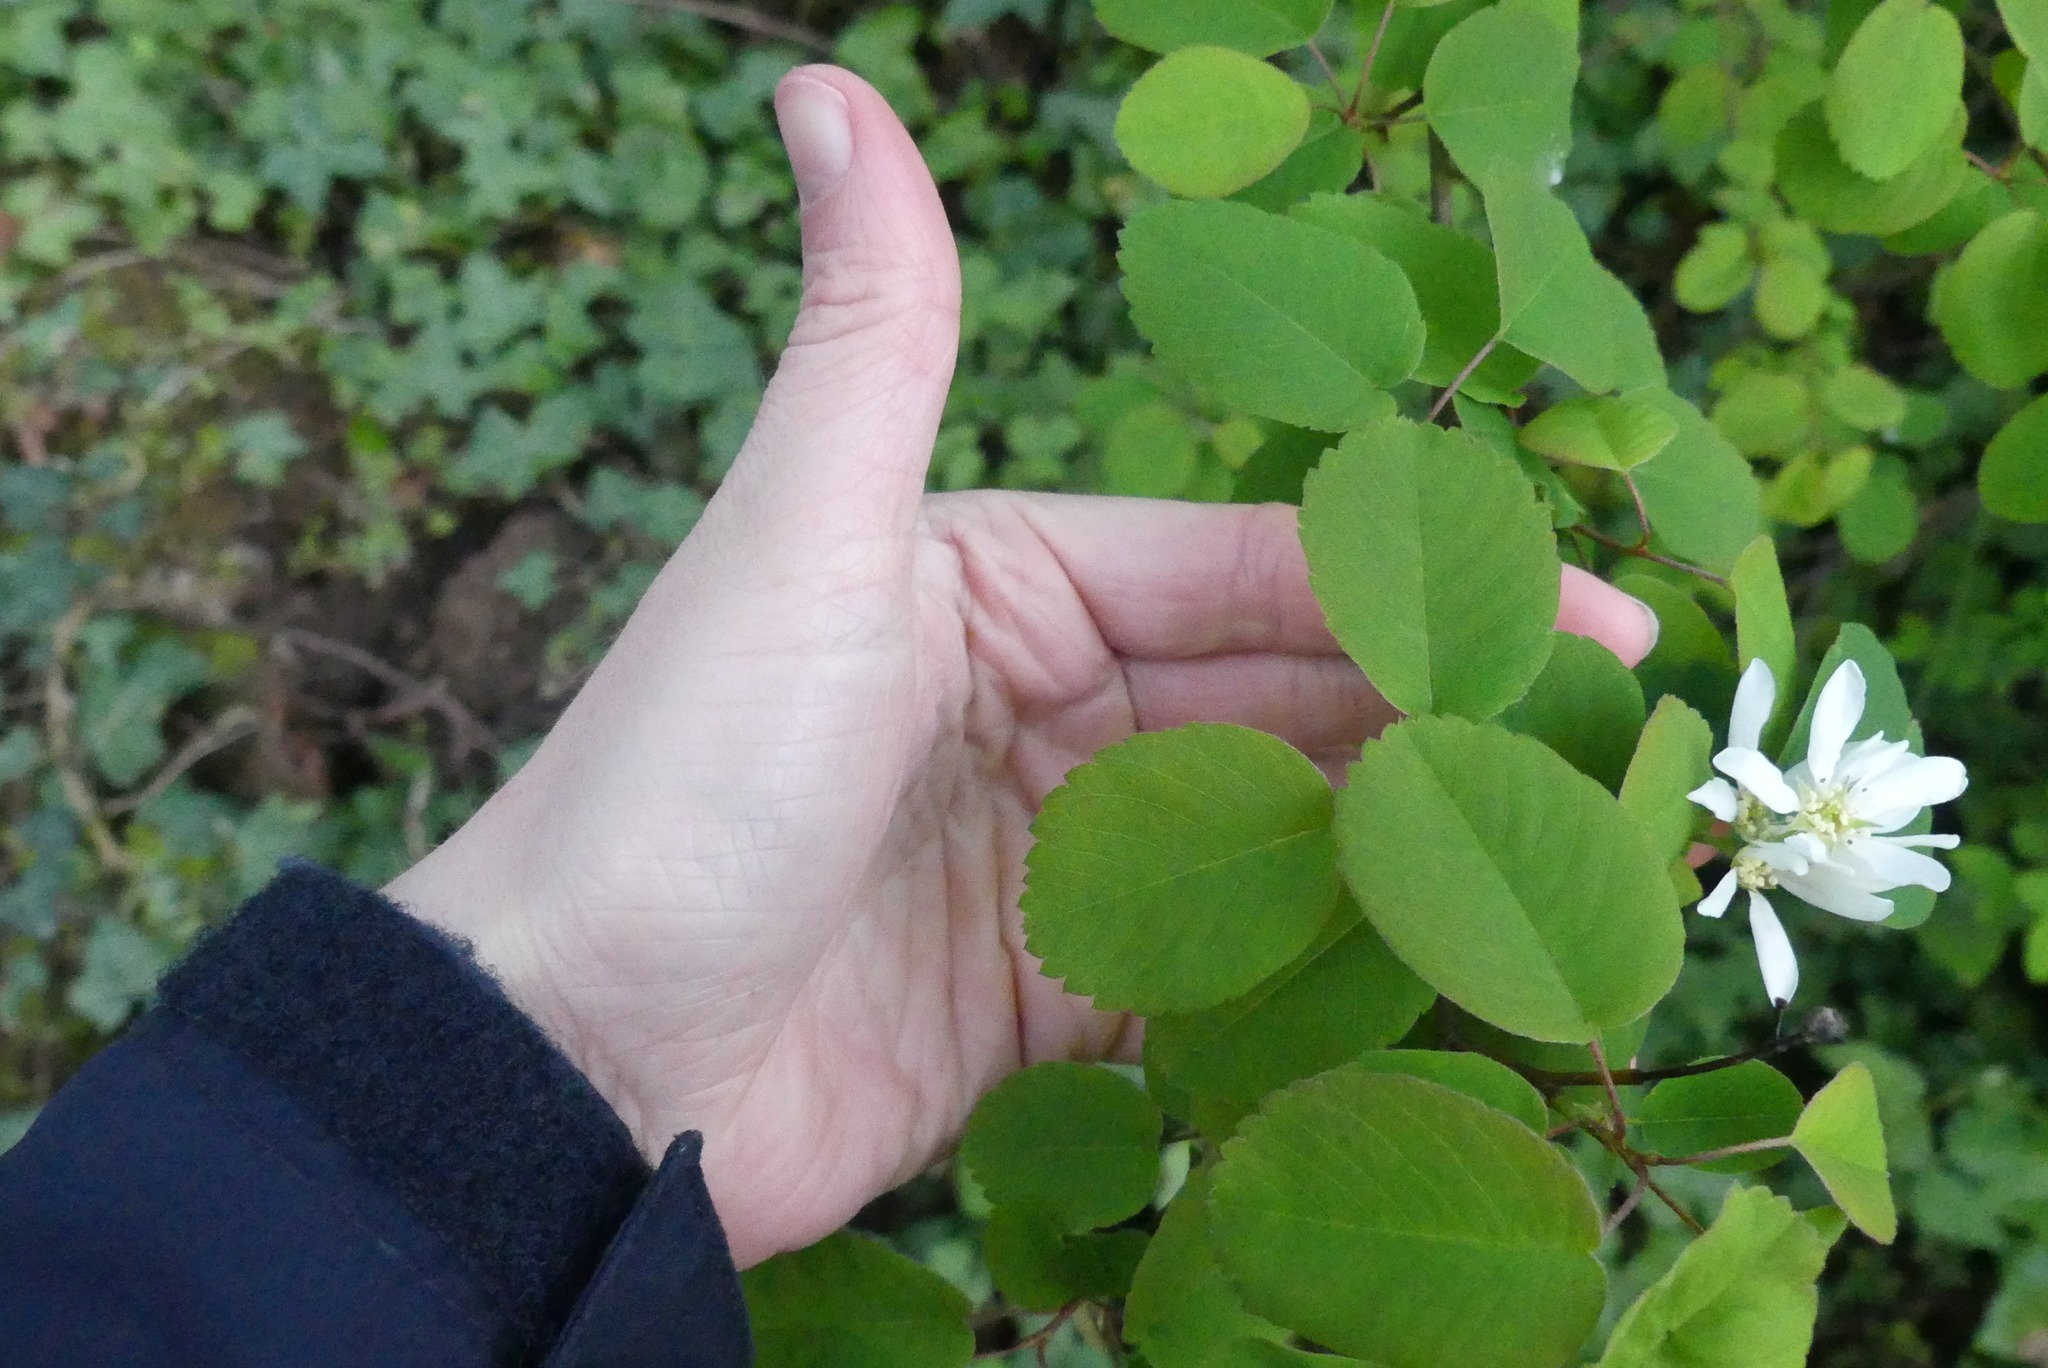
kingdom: Plantae
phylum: Tracheophyta
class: Magnoliopsida
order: Rosales
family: Rosaceae
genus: Amelanchier
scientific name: Amelanchier alnifolia
